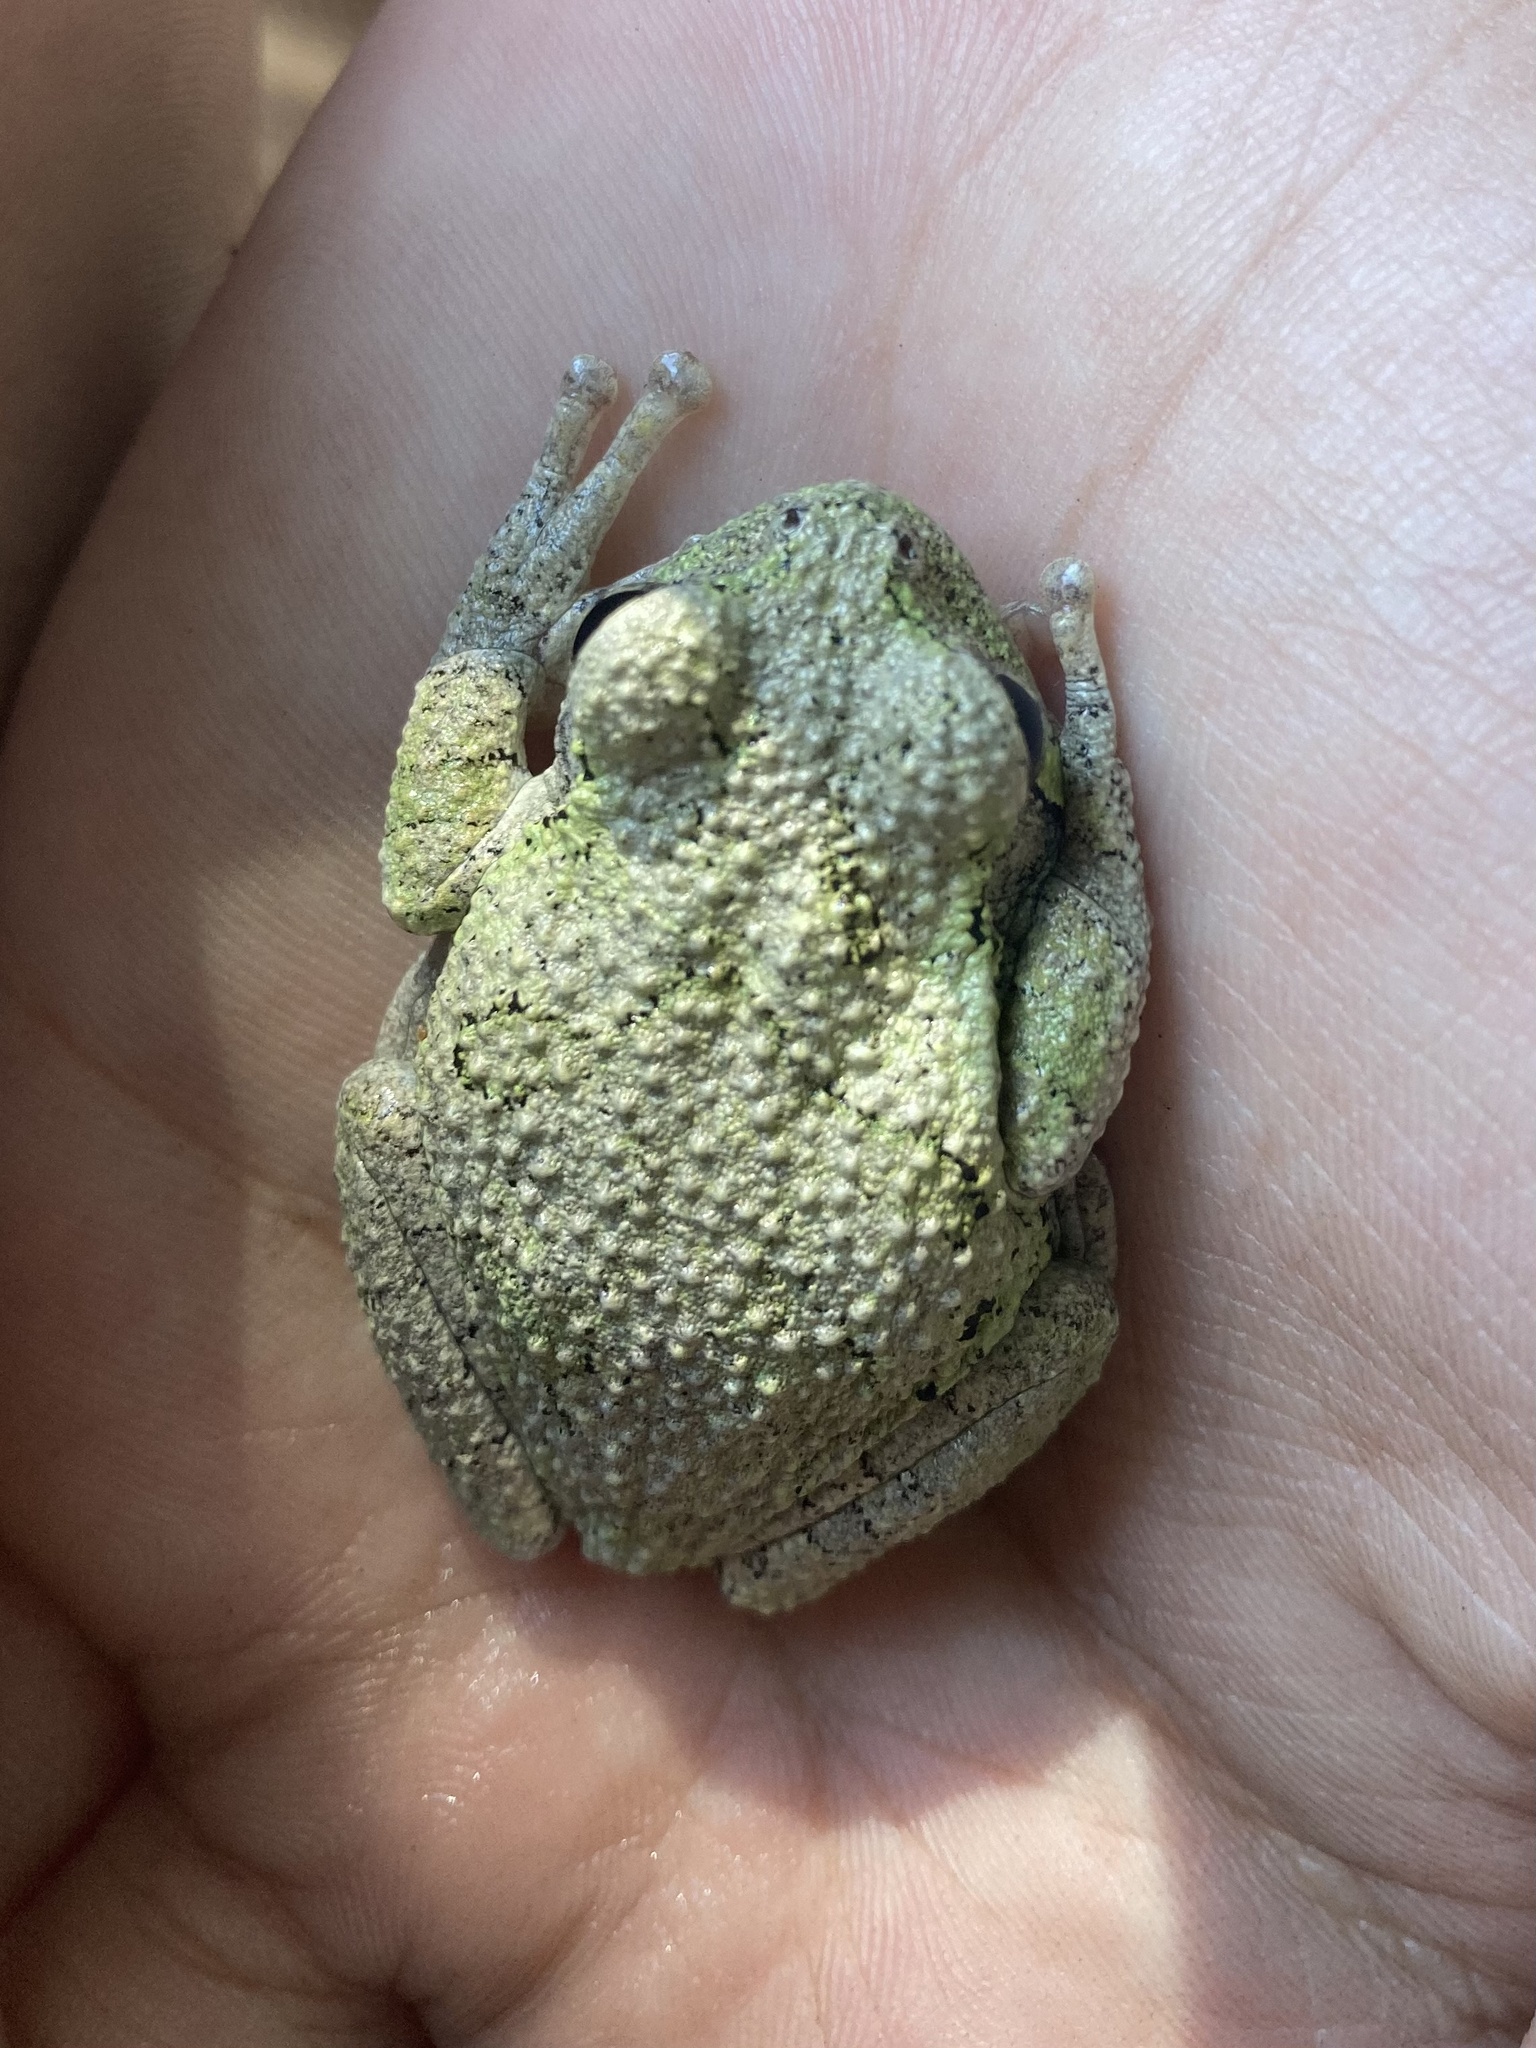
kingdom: Animalia
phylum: Chordata
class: Amphibia
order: Anura
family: Hylidae
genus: Dryophytes
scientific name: Dryophytes chrysoscelis
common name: Cope's gray treefrog
